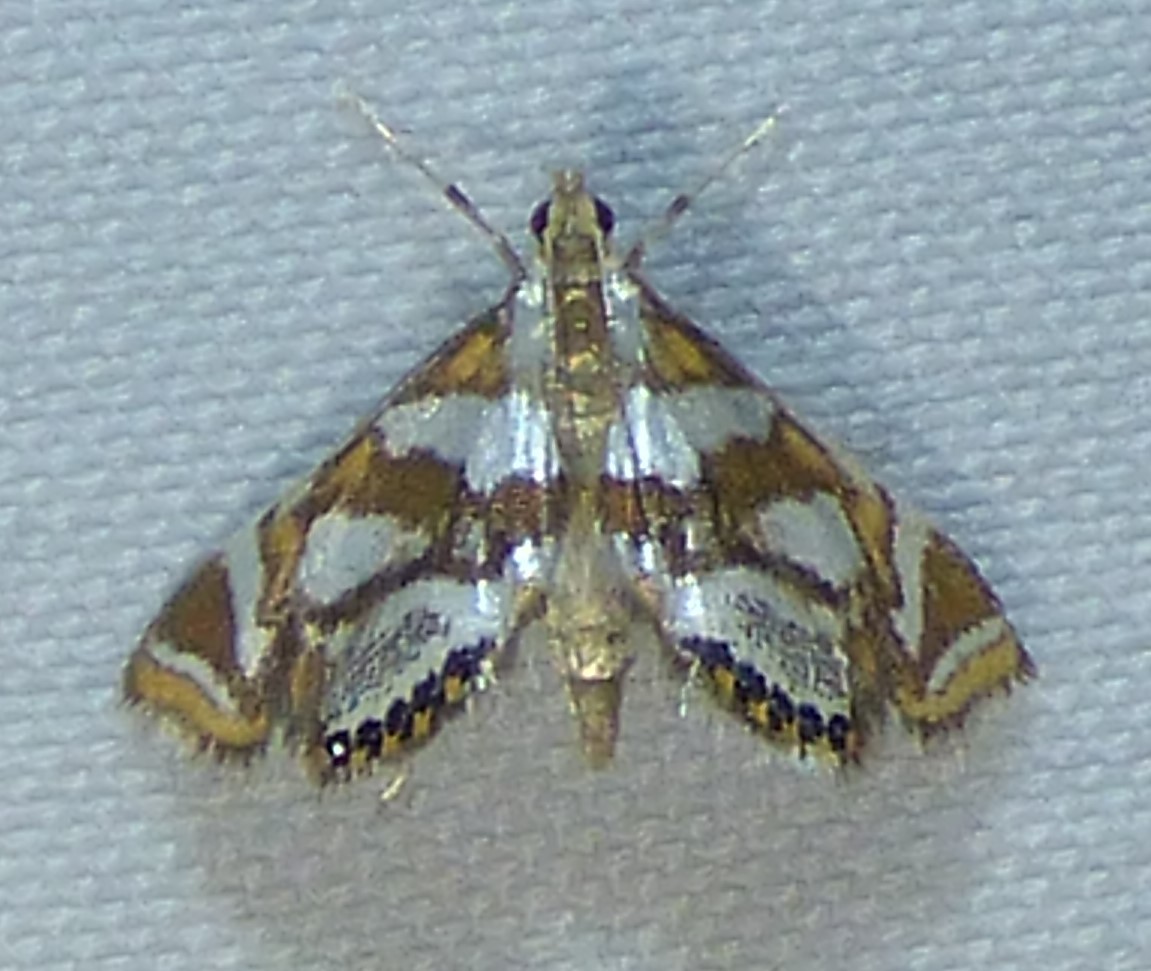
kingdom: Animalia
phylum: Arthropoda
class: Insecta
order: Lepidoptera
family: Crambidae
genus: Chrysendeton
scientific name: Chrysendeton medicinalis
